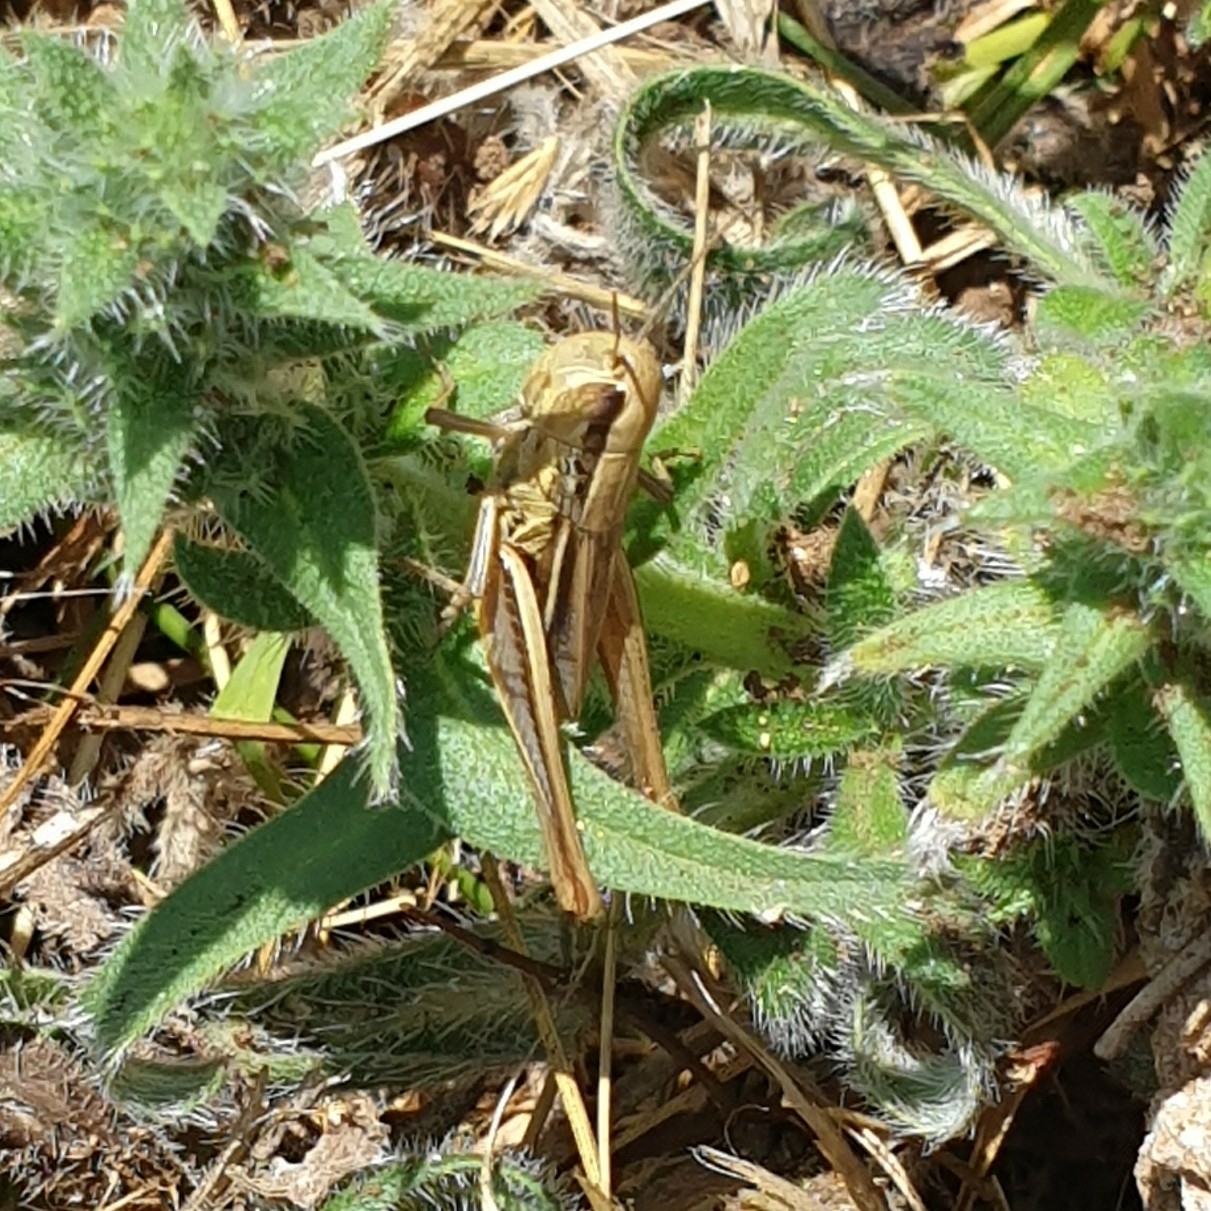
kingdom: Animalia
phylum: Arthropoda
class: Insecta
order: Orthoptera
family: Acrididae
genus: Euchorthippus
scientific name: Euchorthippus declivus
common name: Common straw grasshopper
